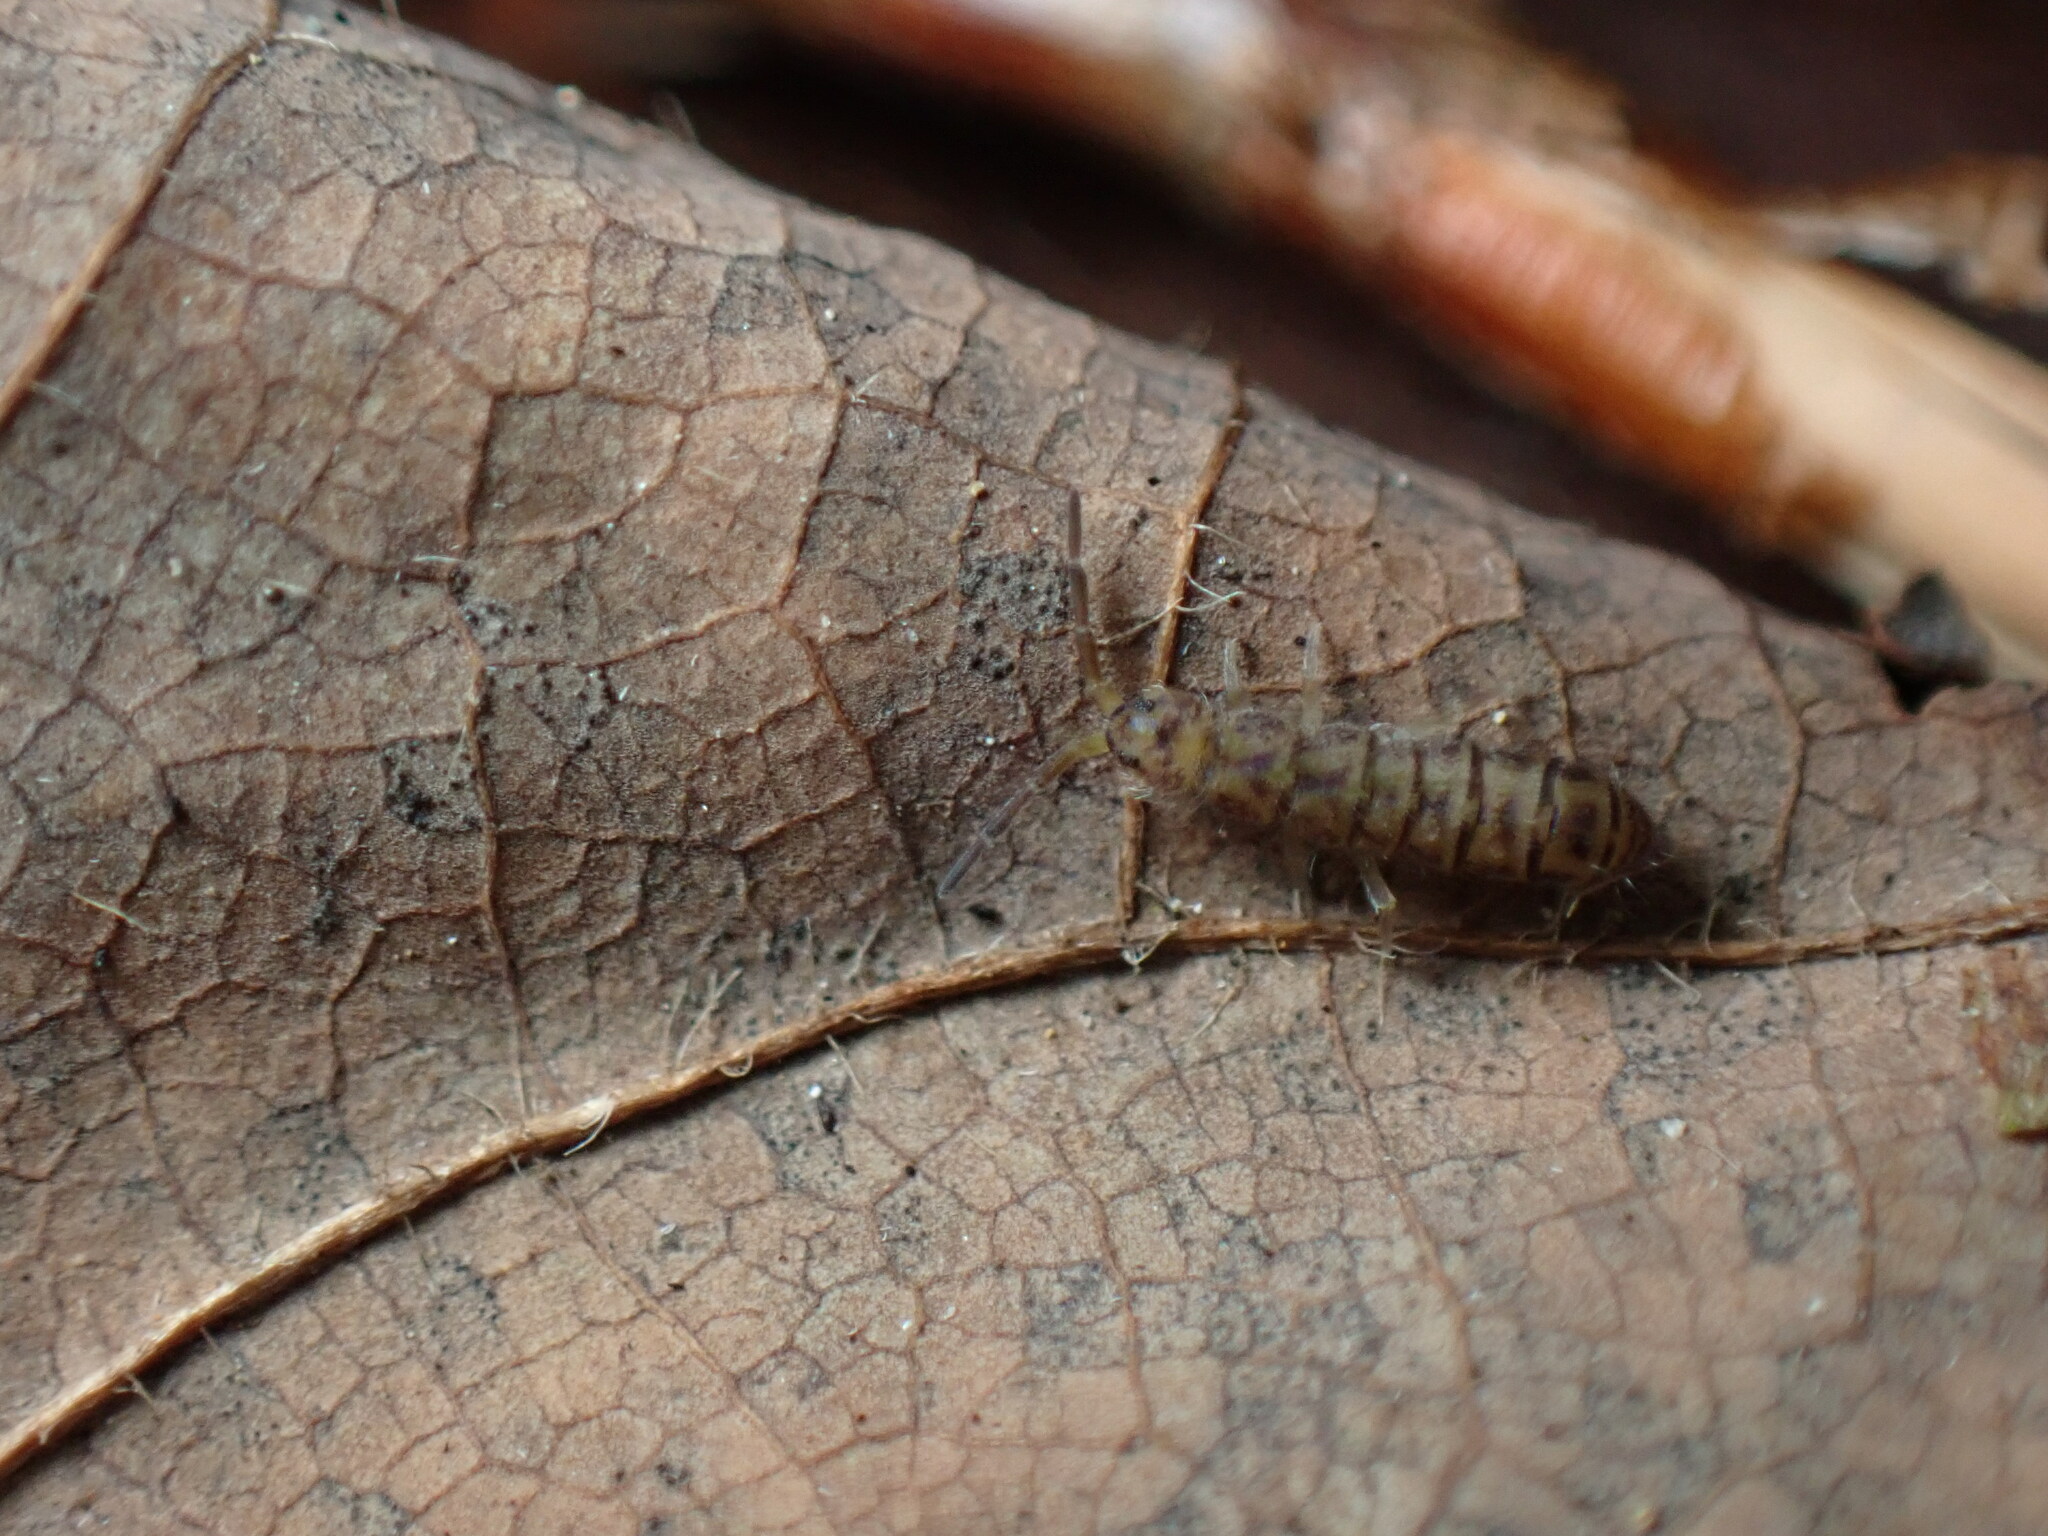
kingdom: Animalia
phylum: Arthropoda
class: Collembola
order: Entomobryomorpha
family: Isotomidae
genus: Isotoma
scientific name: Isotoma delta
